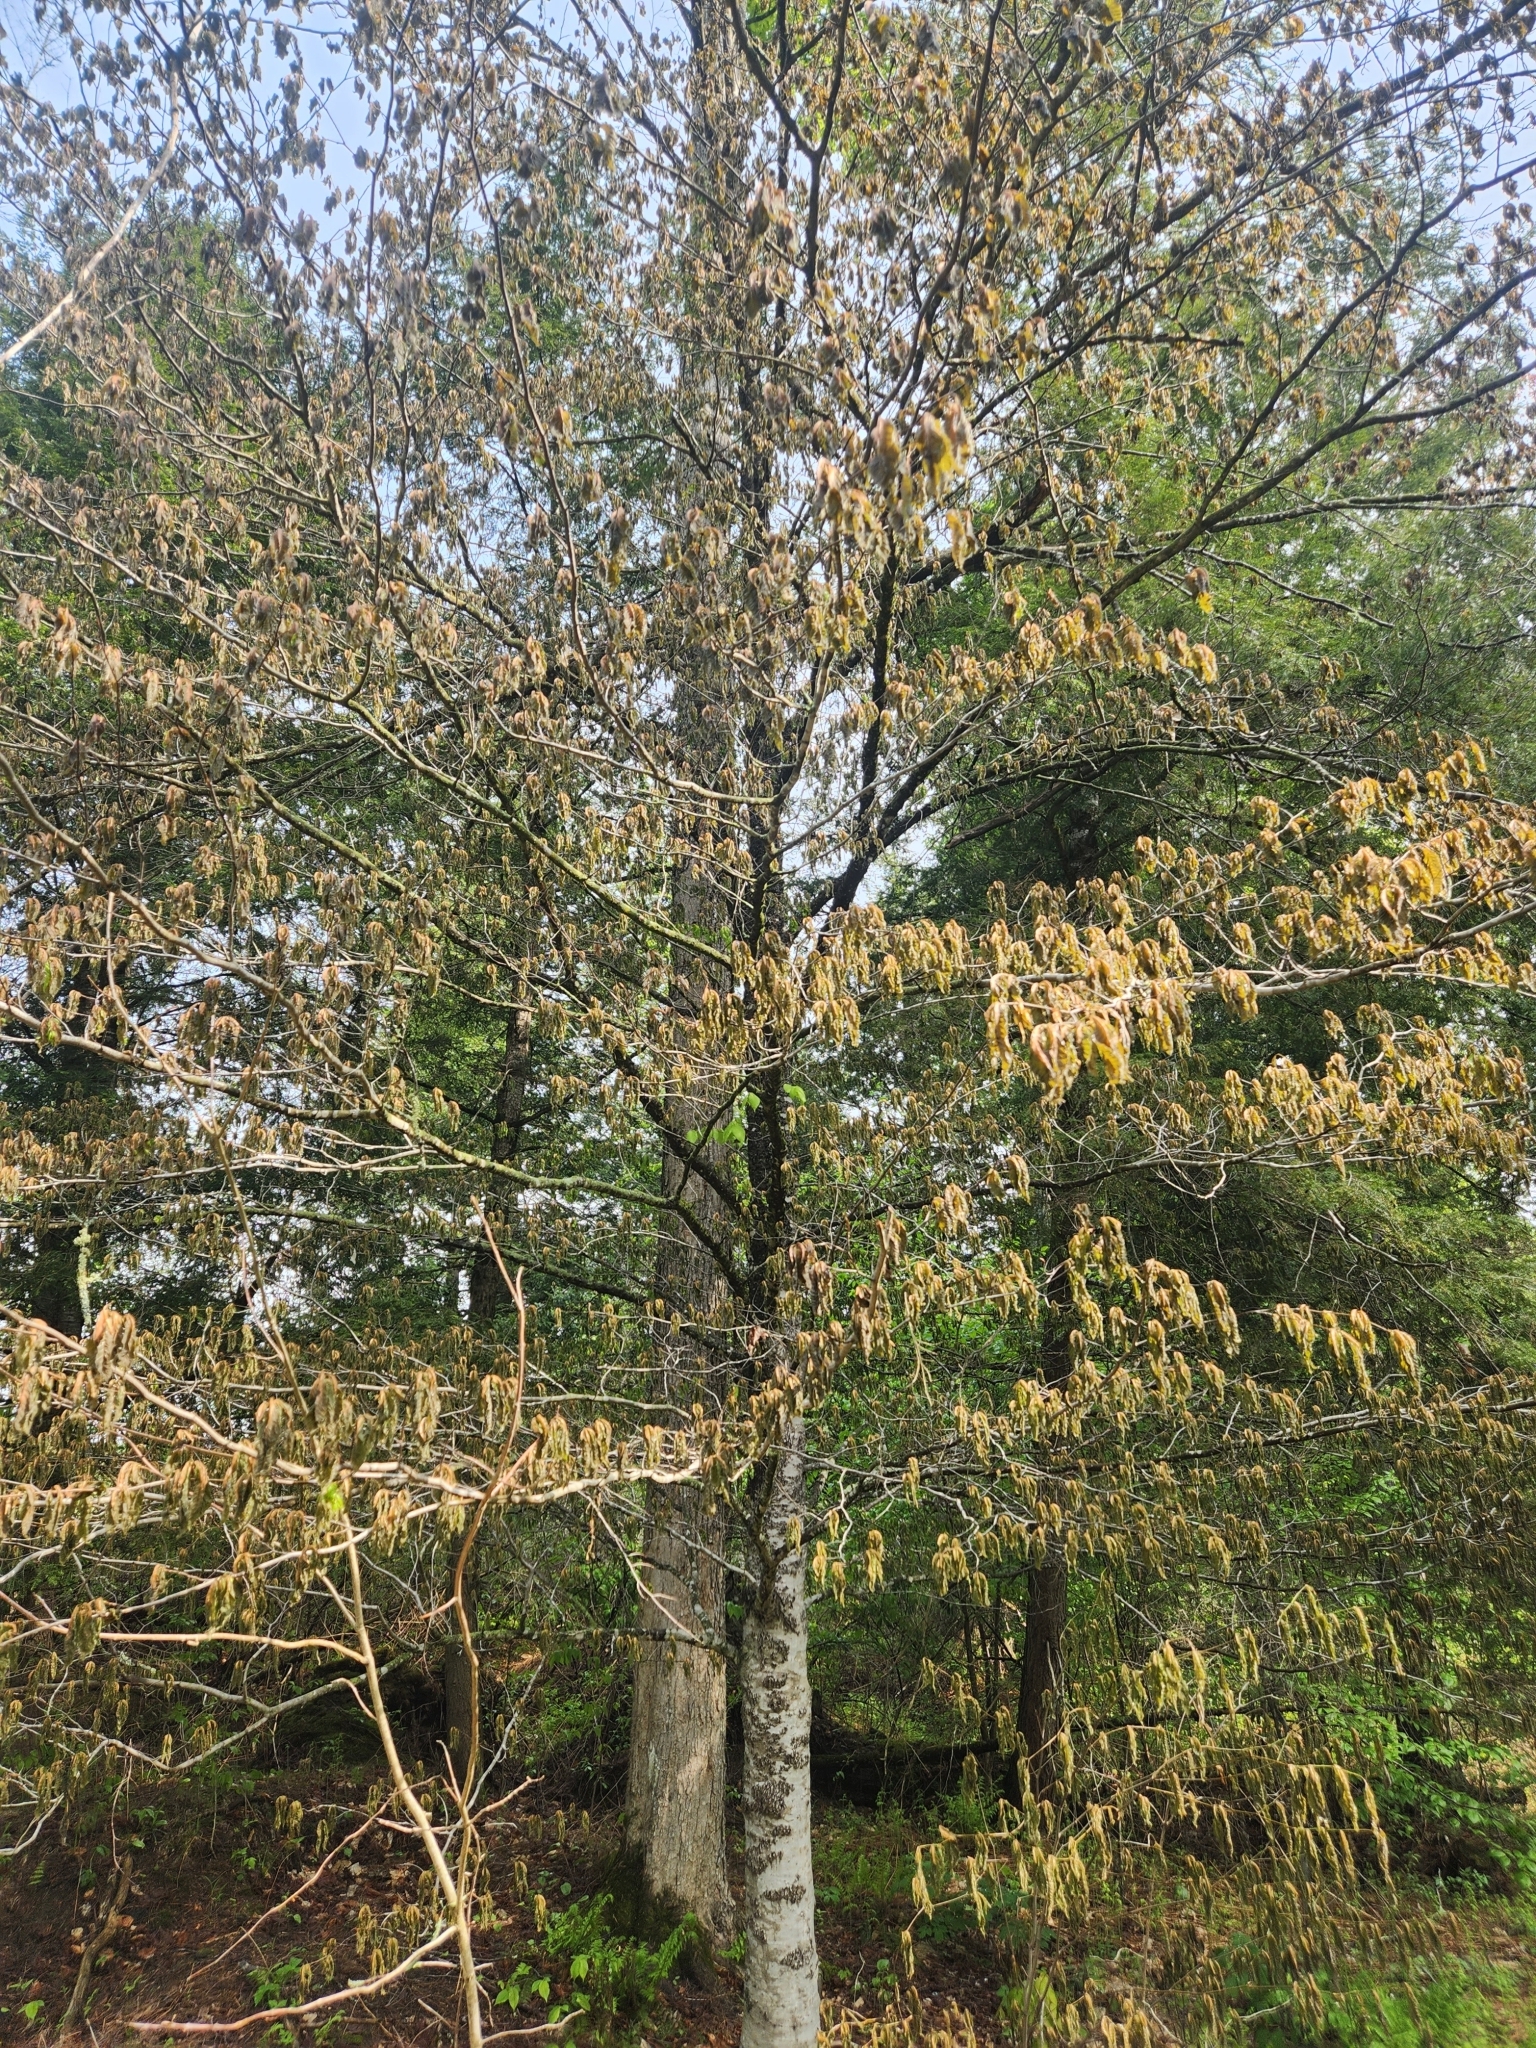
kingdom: Plantae
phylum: Tracheophyta
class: Magnoliopsida
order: Fagales
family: Fagaceae
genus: Fagus
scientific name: Fagus grandifolia
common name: American beech
